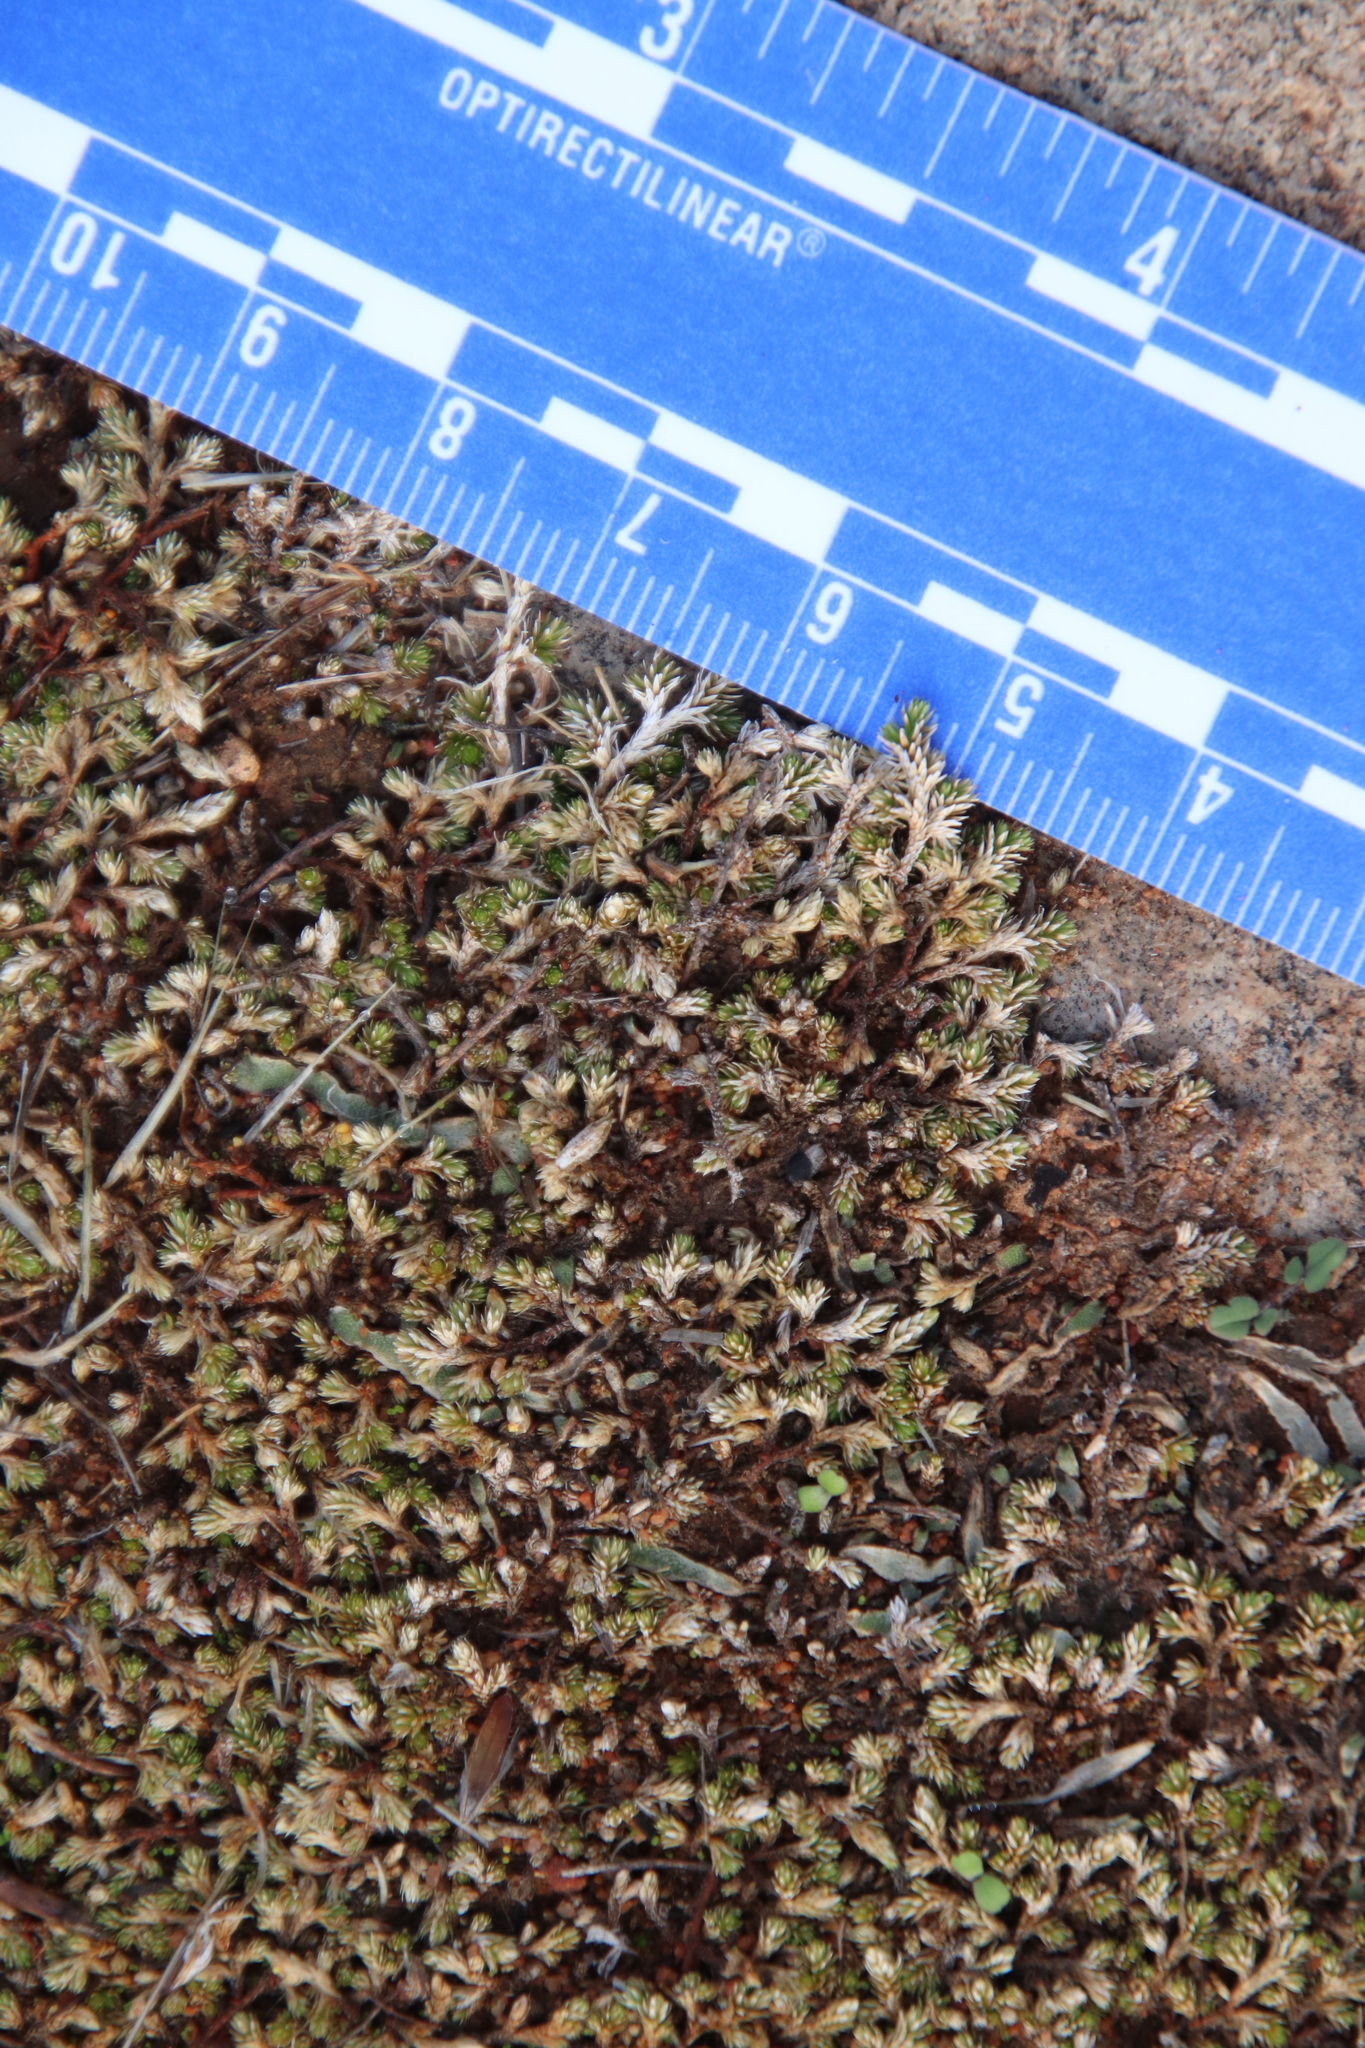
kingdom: Plantae
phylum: Tracheophyta
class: Lycopodiopsida
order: Selaginellales
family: Selaginellaceae
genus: Selaginella
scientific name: Selaginella cinerascens
